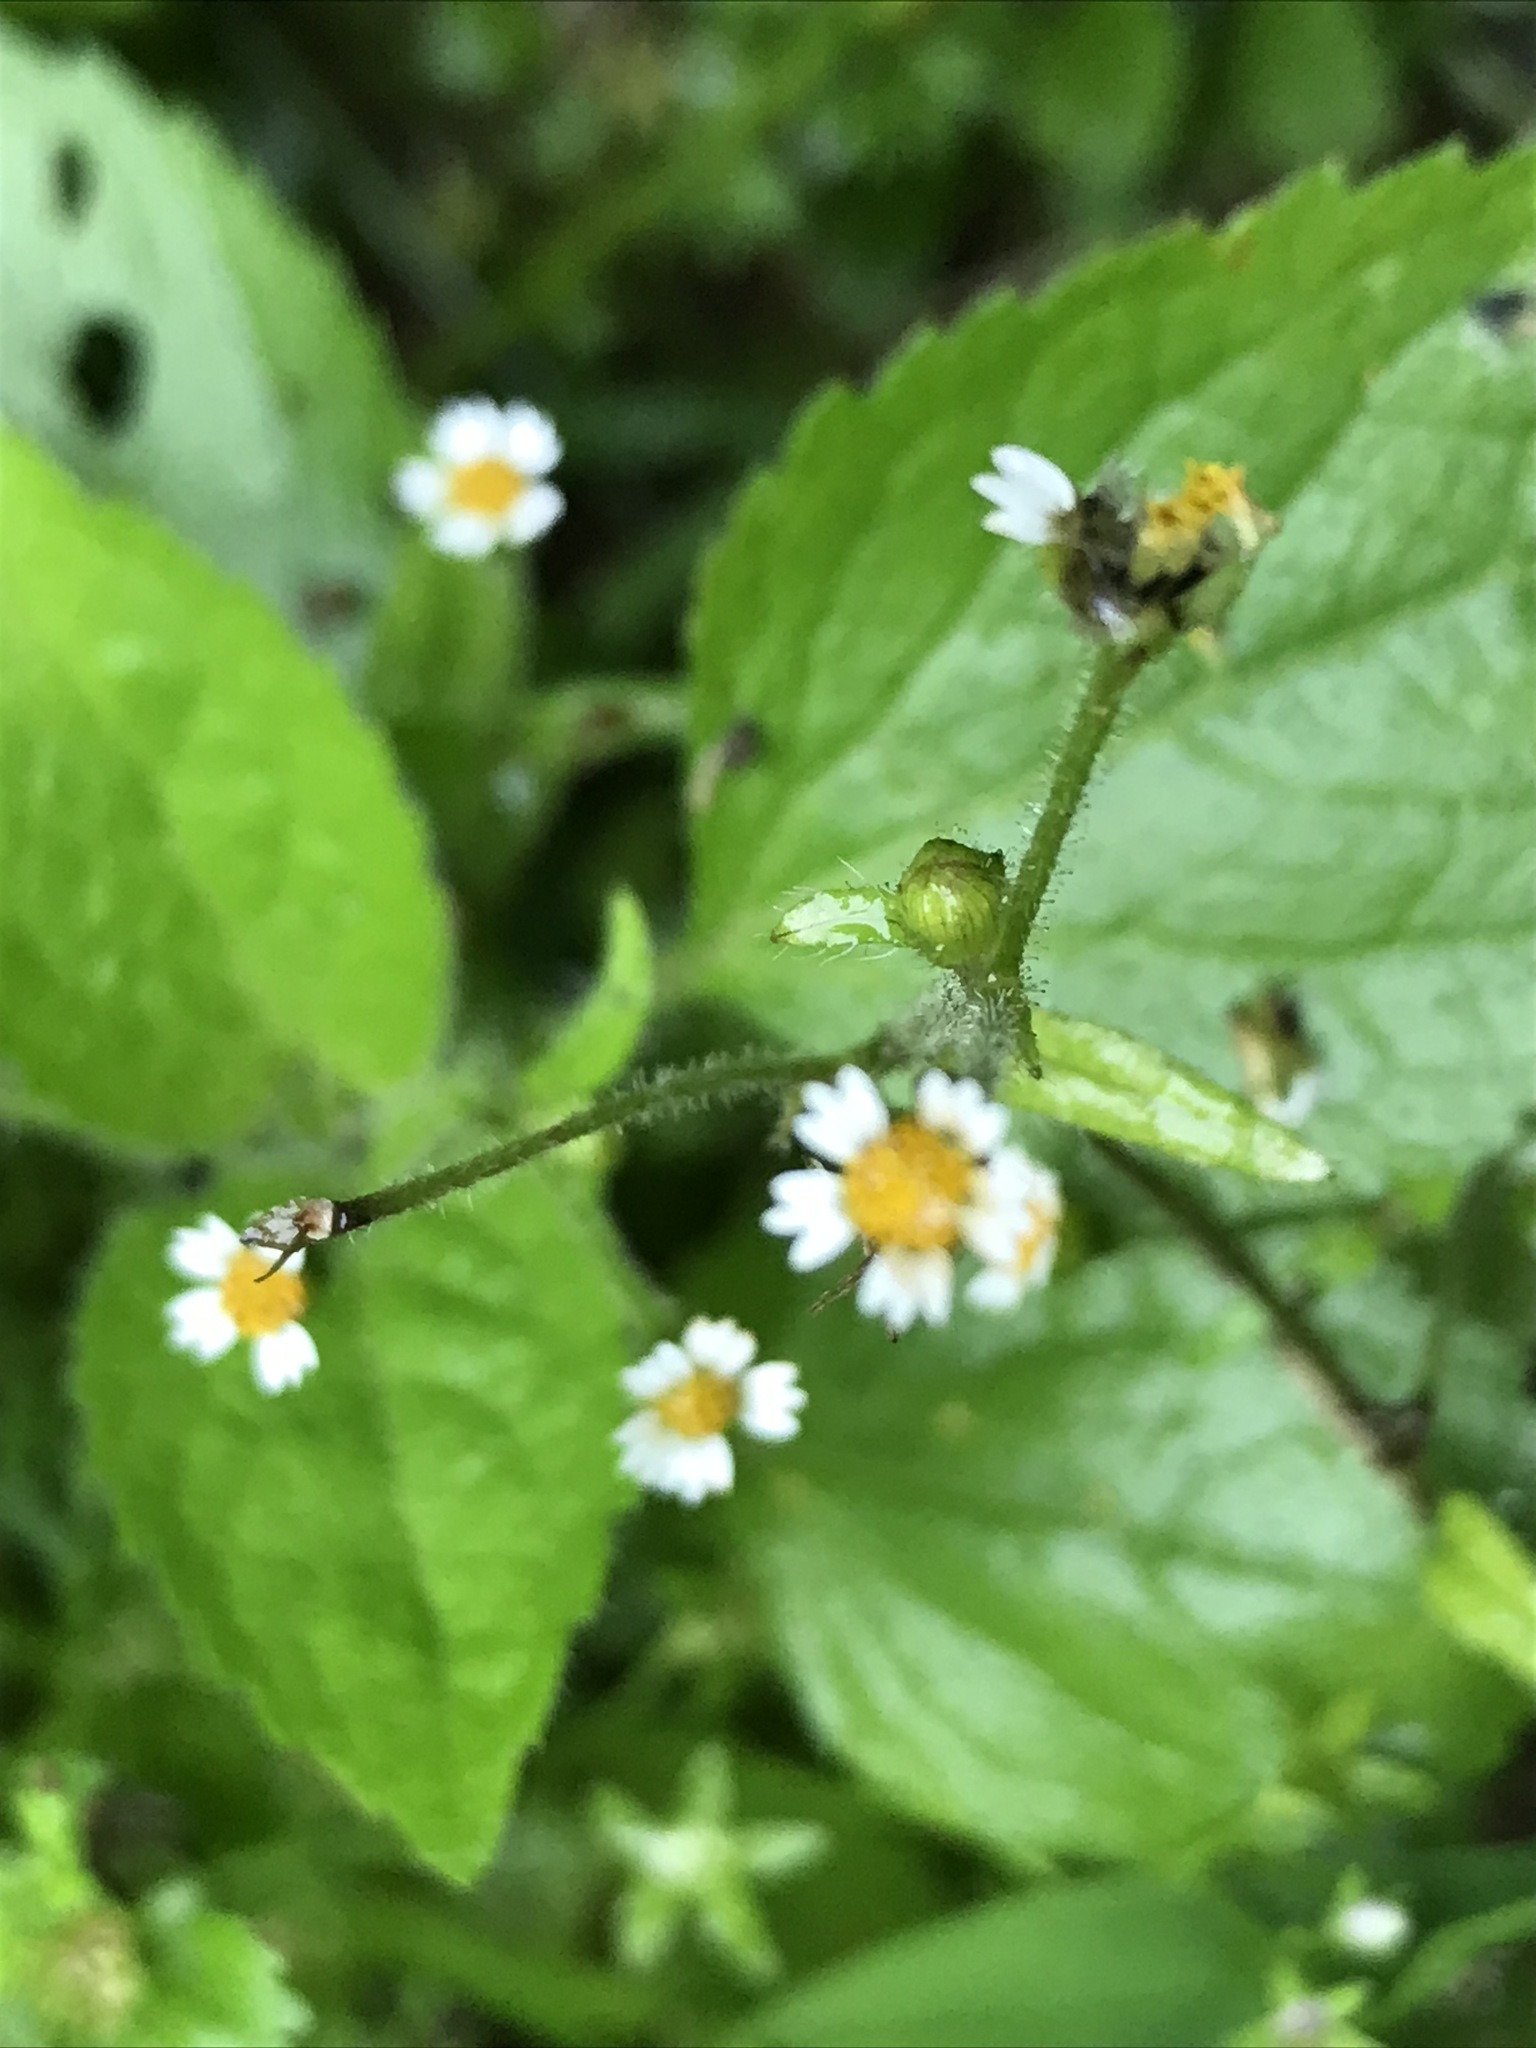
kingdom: Plantae
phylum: Tracheophyta
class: Magnoliopsida
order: Asterales
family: Asteraceae
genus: Galinsoga
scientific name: Galinsoga quadriradiata
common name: Shaggy soldier
